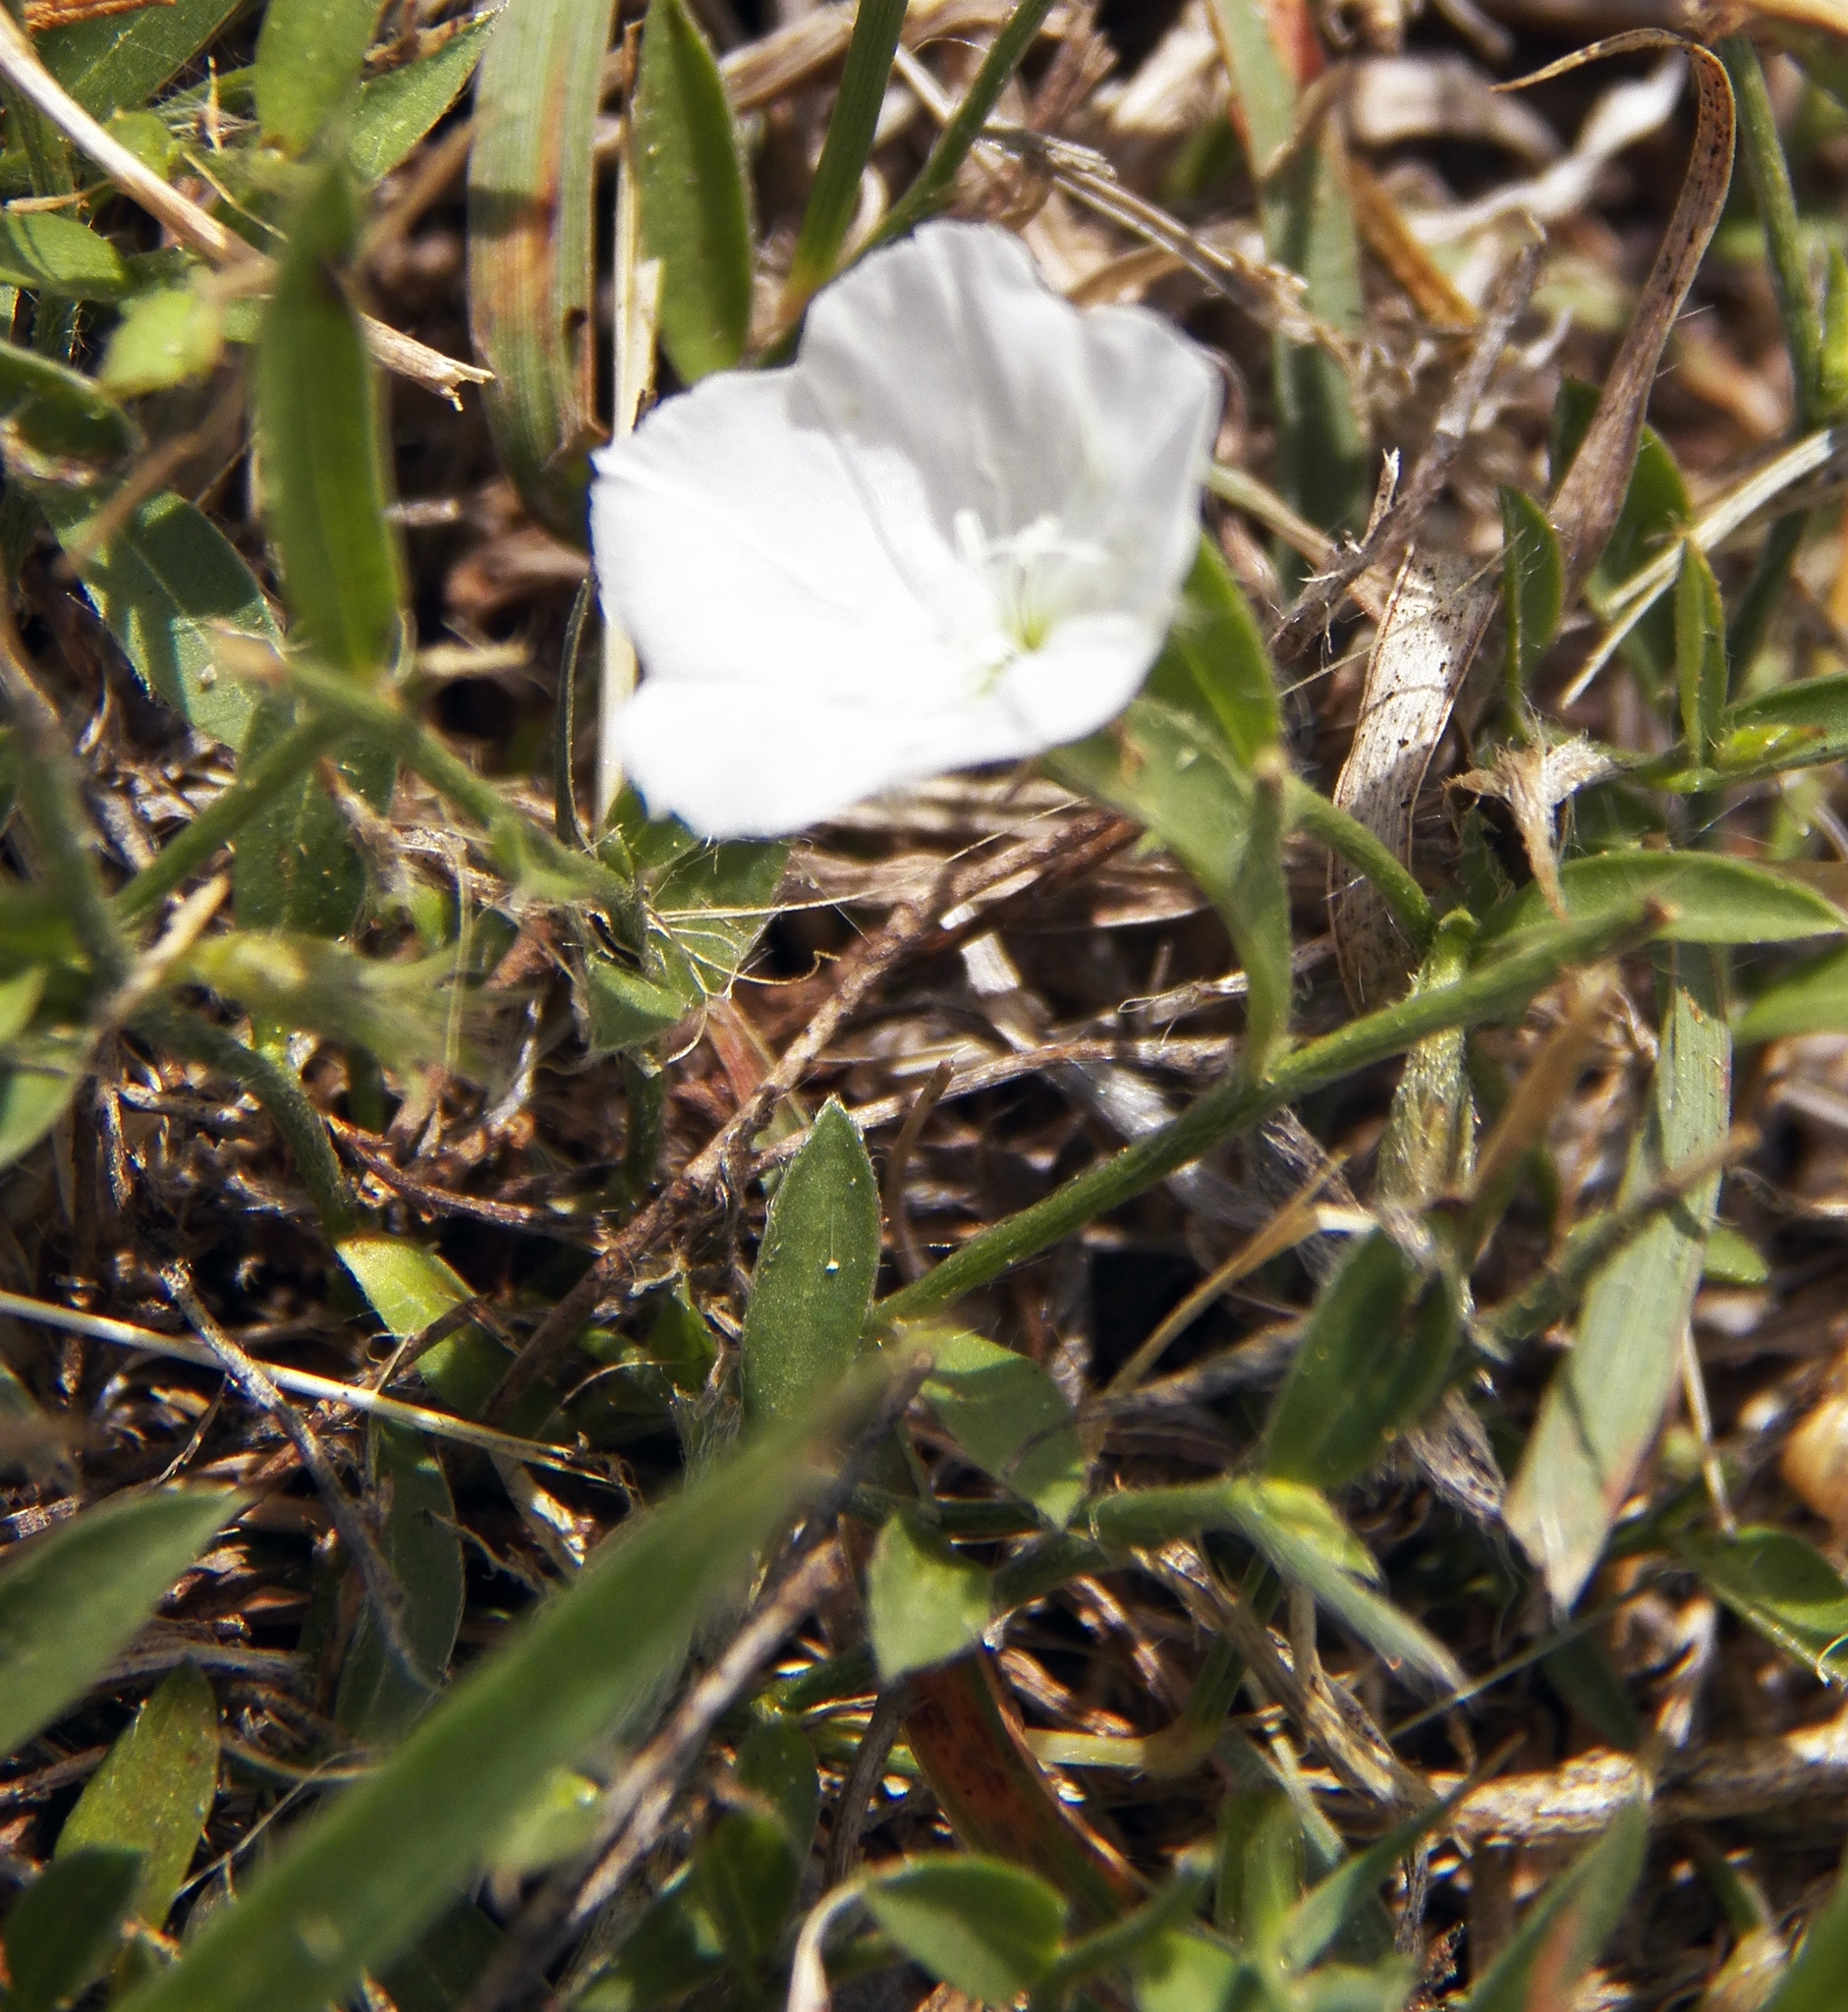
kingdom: Plantae
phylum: Tracheophyta
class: Magnoliopsida
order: Solanales
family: Convolvulaceae
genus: Evolvulus
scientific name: Evolvulus sericeus
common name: Blue dots
